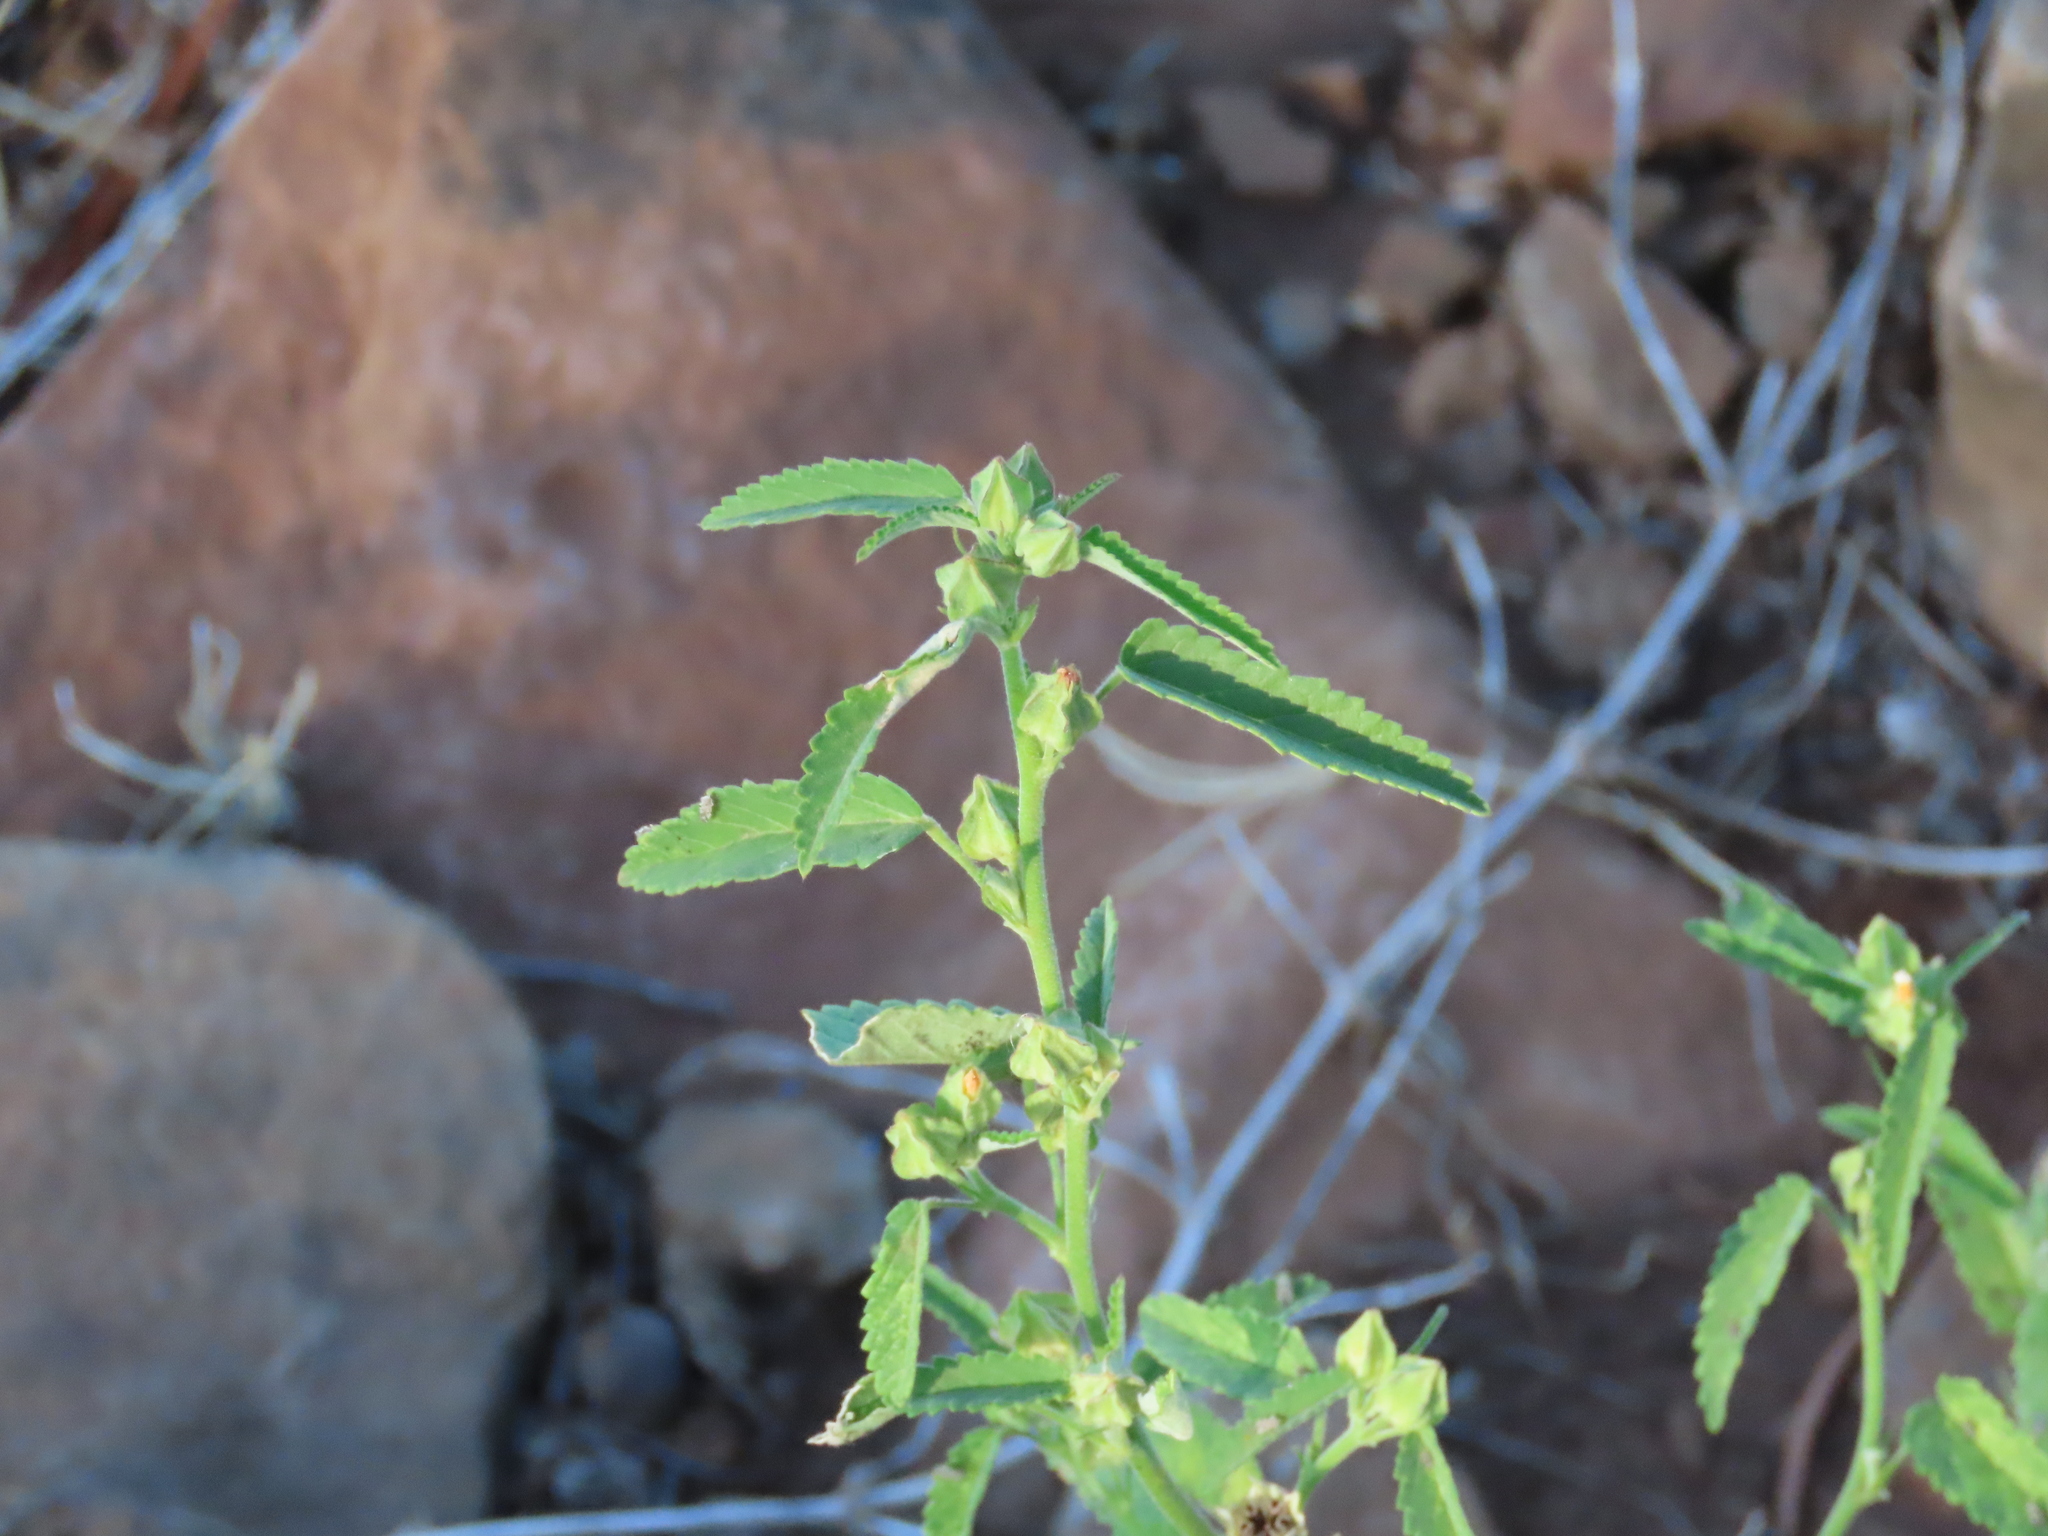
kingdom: Plantae
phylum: Tracheophyta
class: Magnoliopsida
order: Malvales
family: Malvaceae
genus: Sida
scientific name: Sida spinosa
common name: Prickly fanpetals
